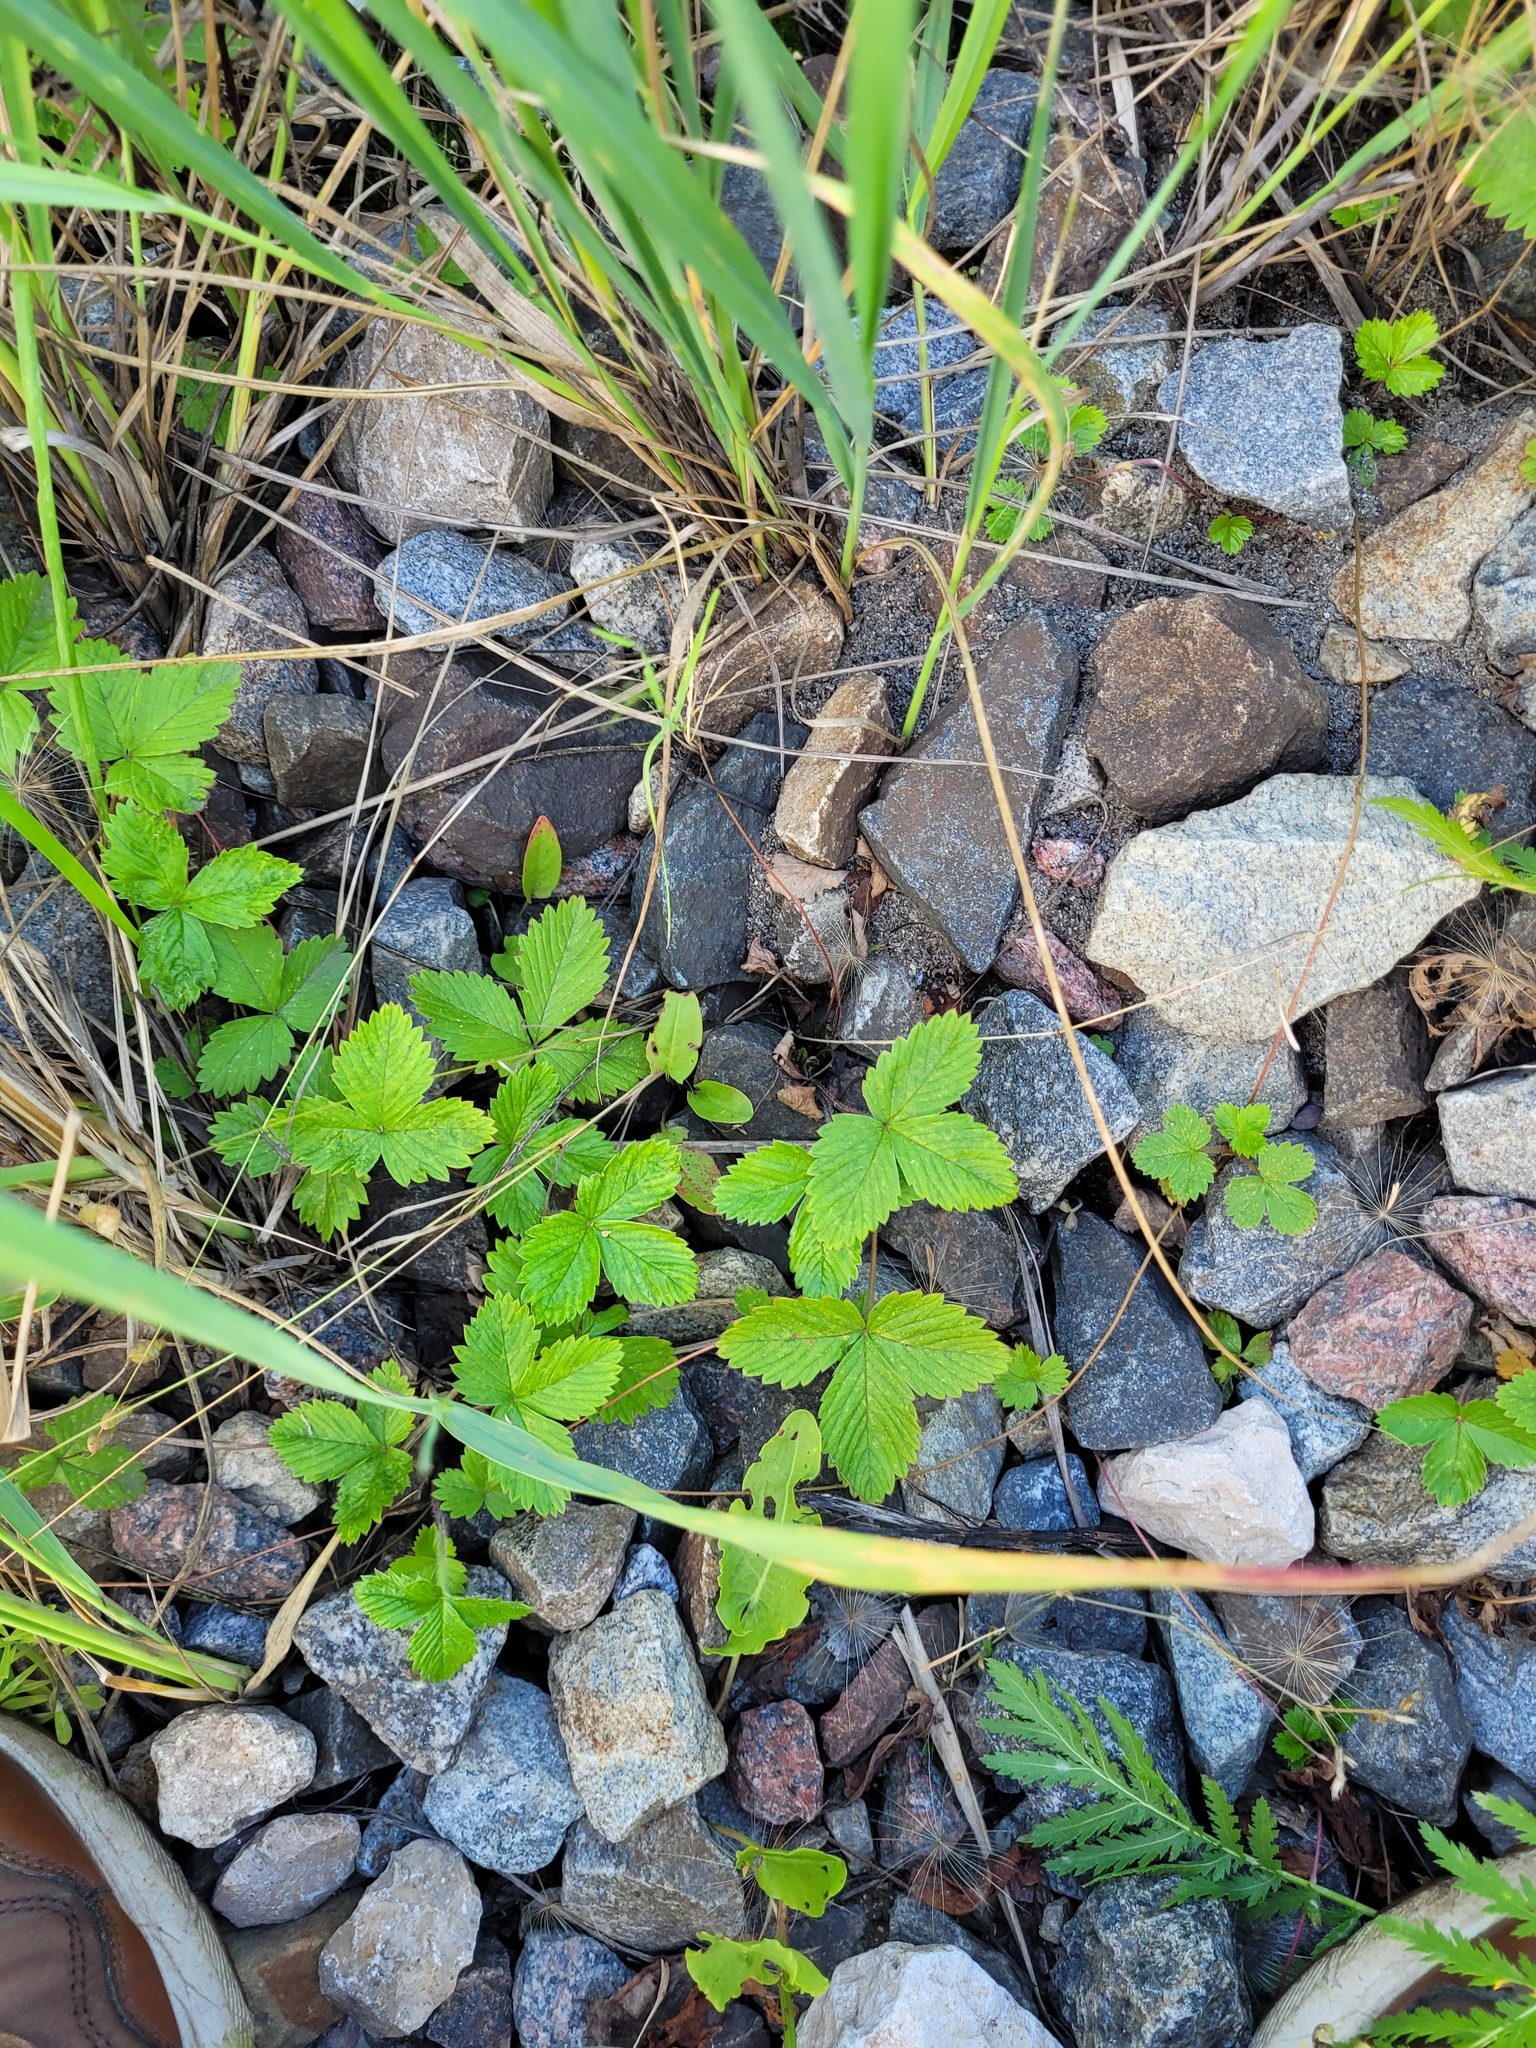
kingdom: Plantae
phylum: Tracheophyta
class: Magnoliopsida
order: Rosales
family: Rosaceae
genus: Fragaria
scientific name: Fragaria vesca
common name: Wild strawberry
